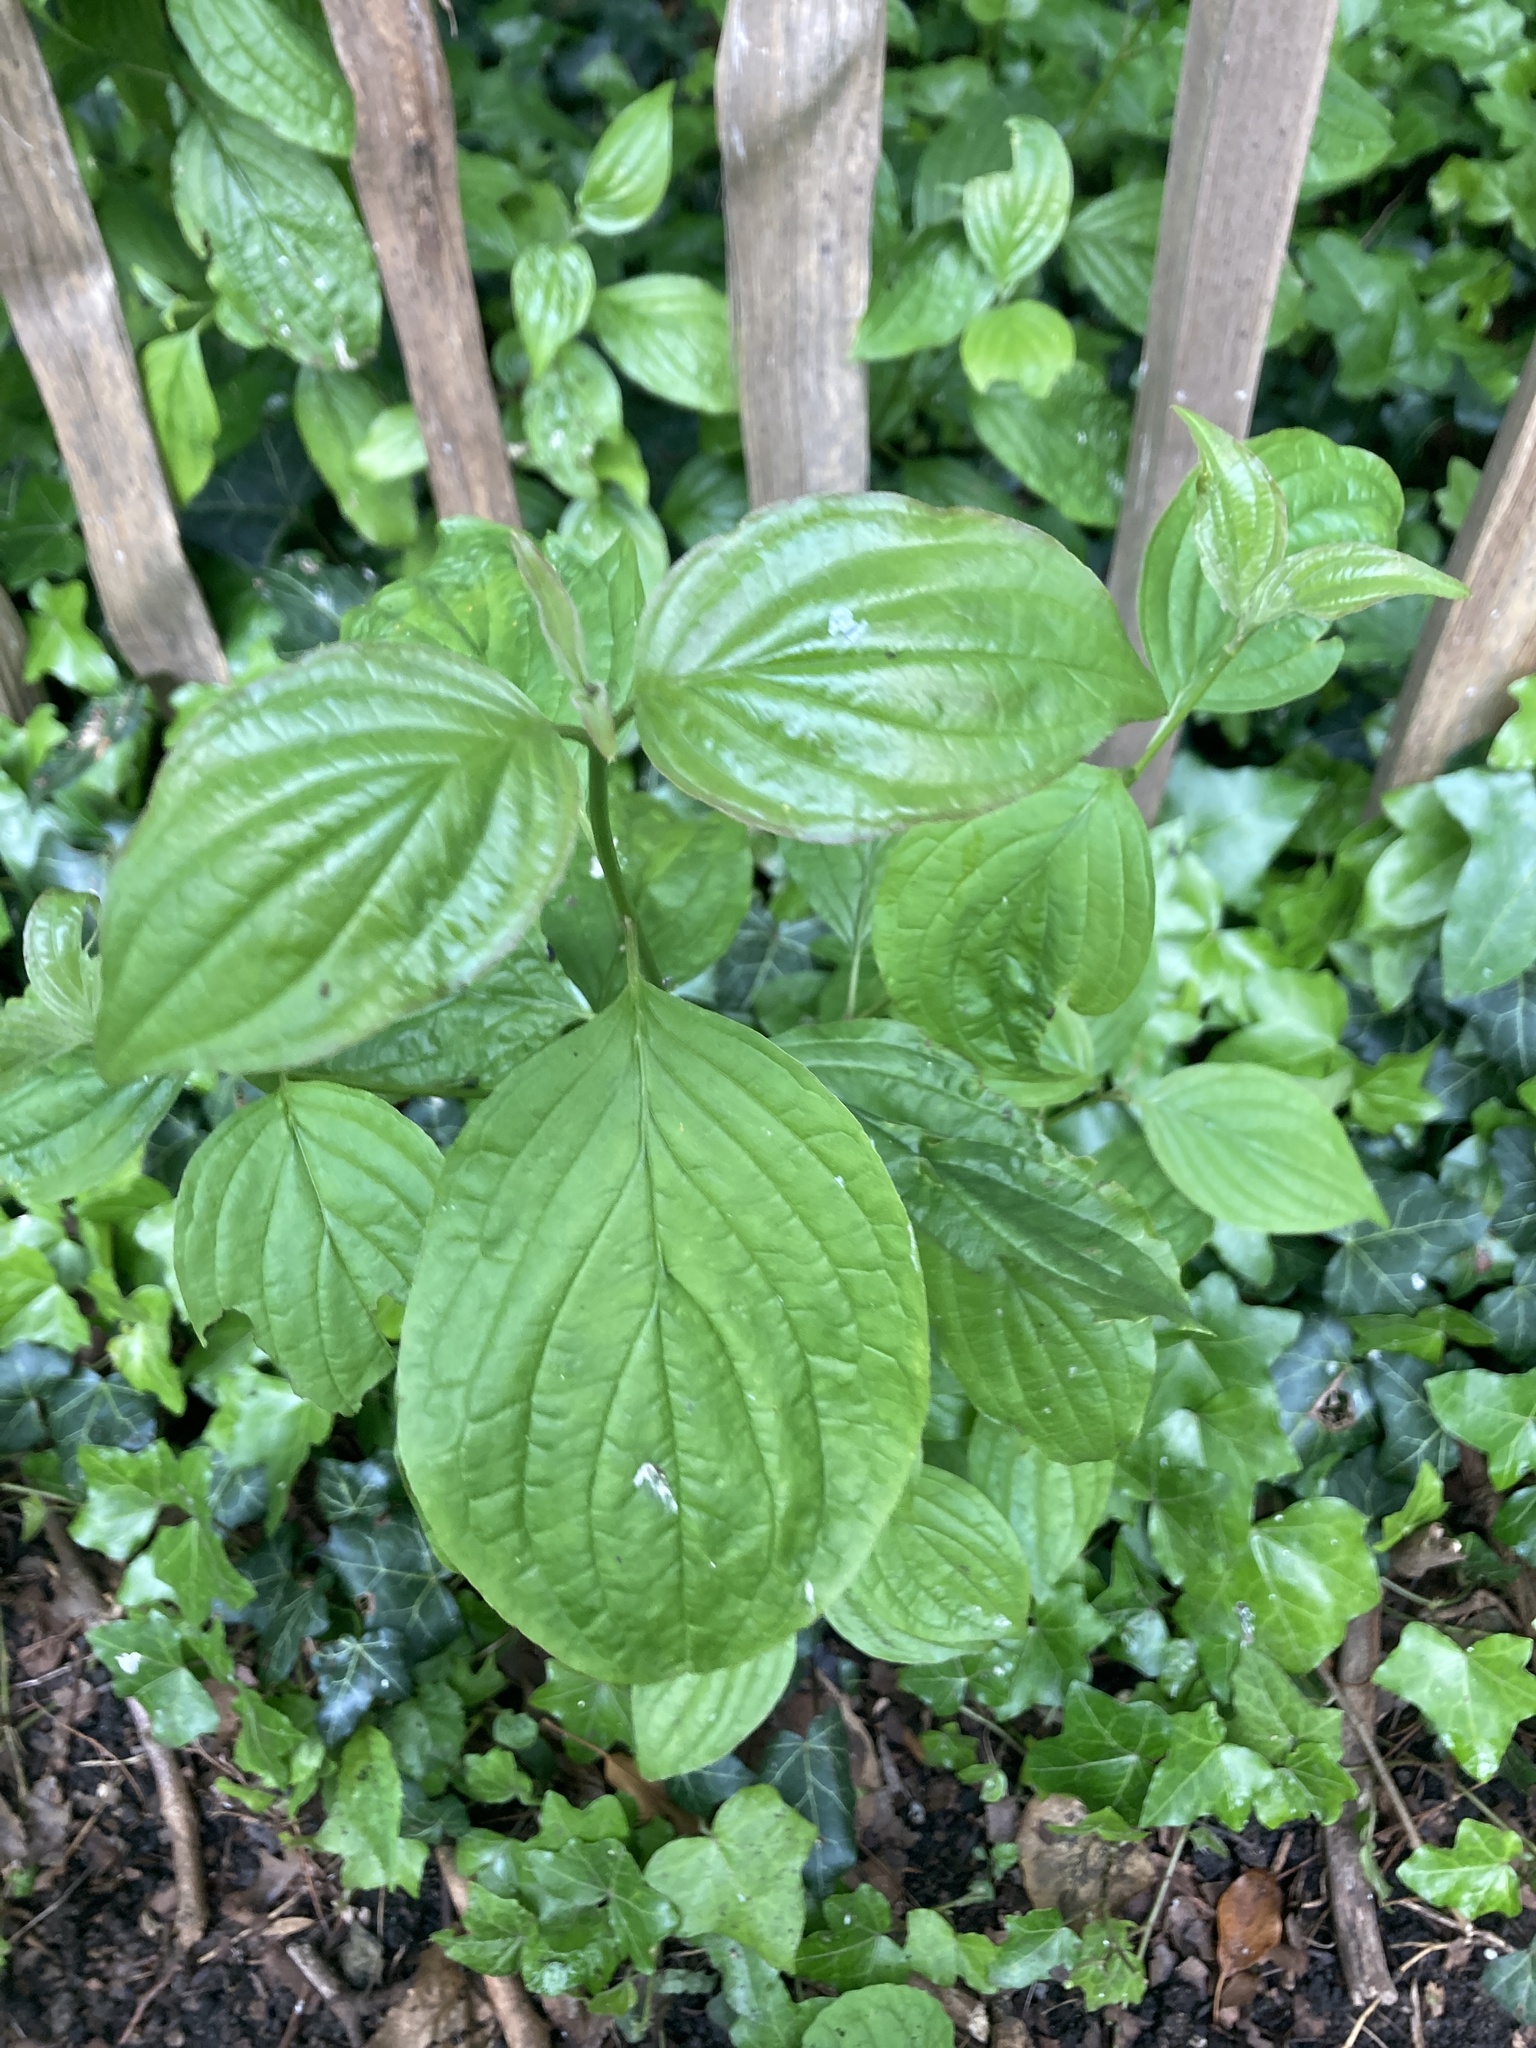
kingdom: Plantae
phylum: Tracheophyta
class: Magnoliopsida
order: Cornales
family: Cornaceae
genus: Cornus
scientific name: Cornus sanguinea
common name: Dogwood
